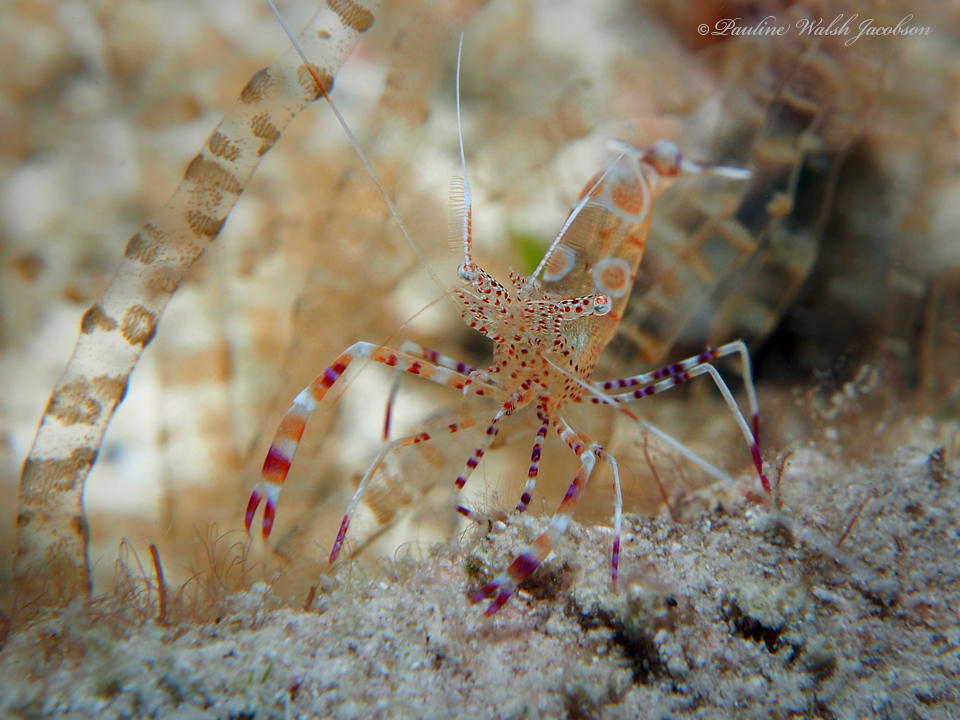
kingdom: Animalia
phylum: Arthropoda
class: Malacostraca
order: Decapoda
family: Palaemonidae
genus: Periclimenes
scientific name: Periclimenes yucatanicus
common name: Spotted cleaning shrimp
